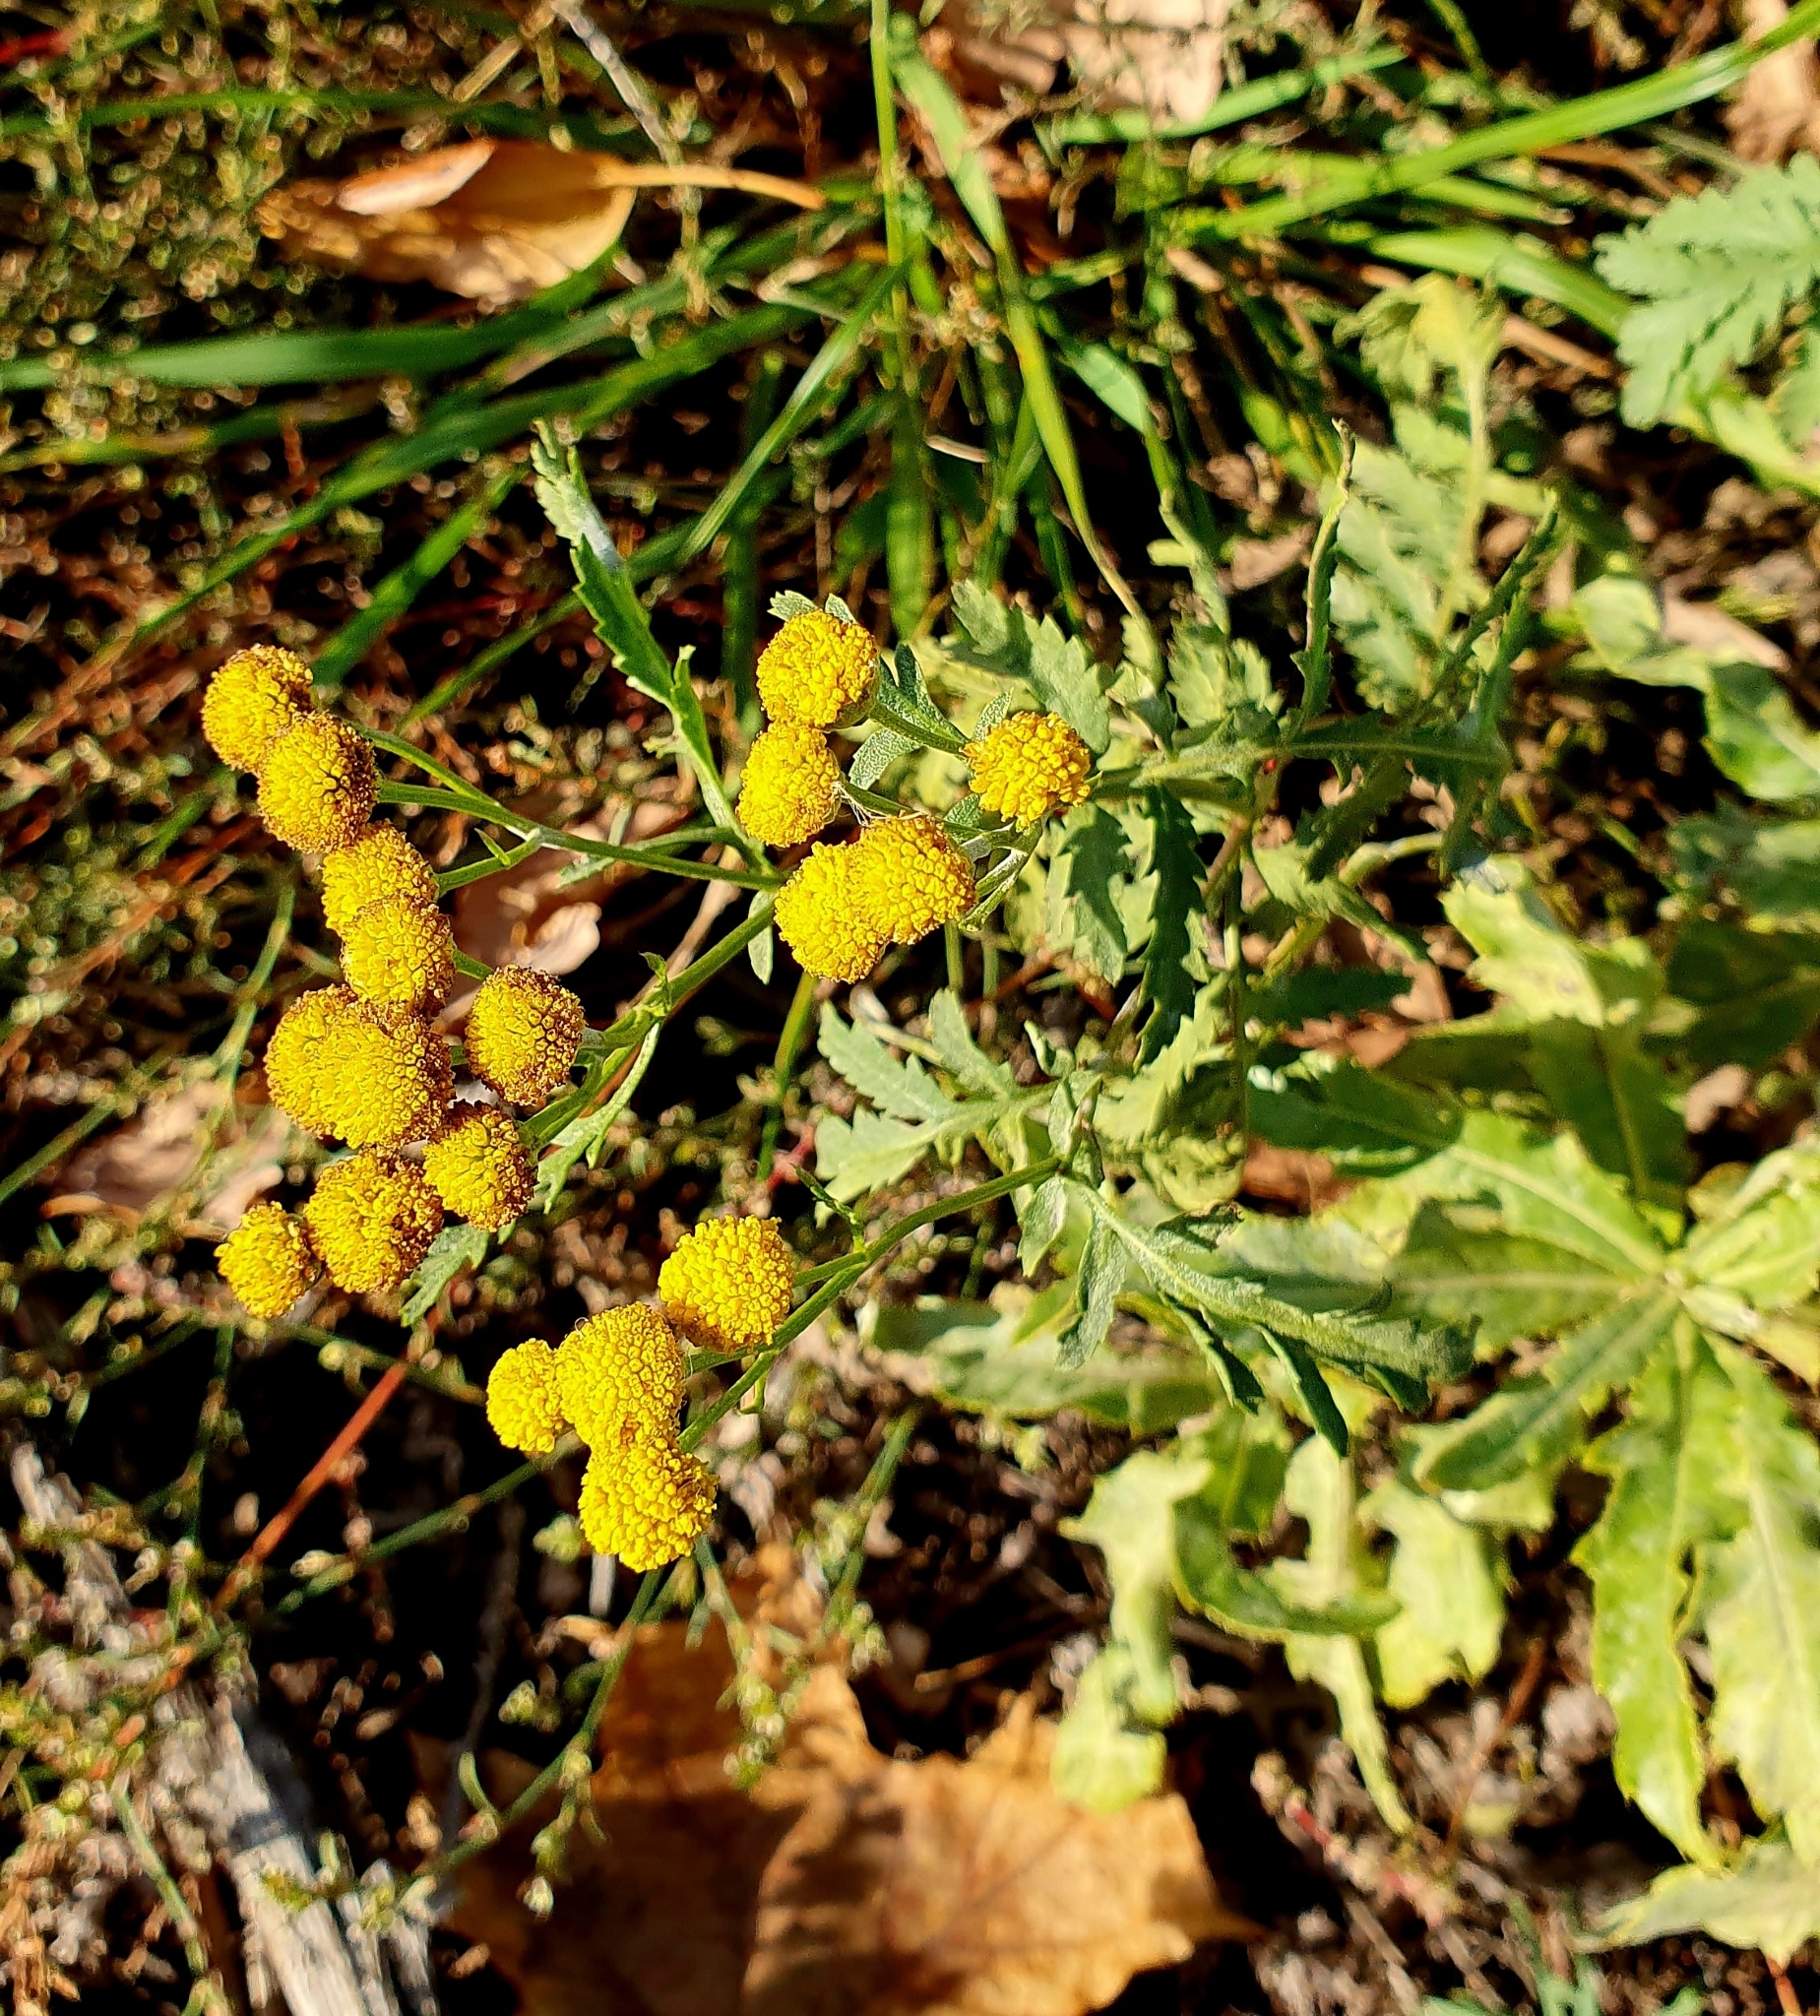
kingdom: Plantae
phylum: Tracheophyta
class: Magnoliopsida
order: Asterales
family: Asteraceae
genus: Tanacetum
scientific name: Tanacetum vulgare
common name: Common tansy
